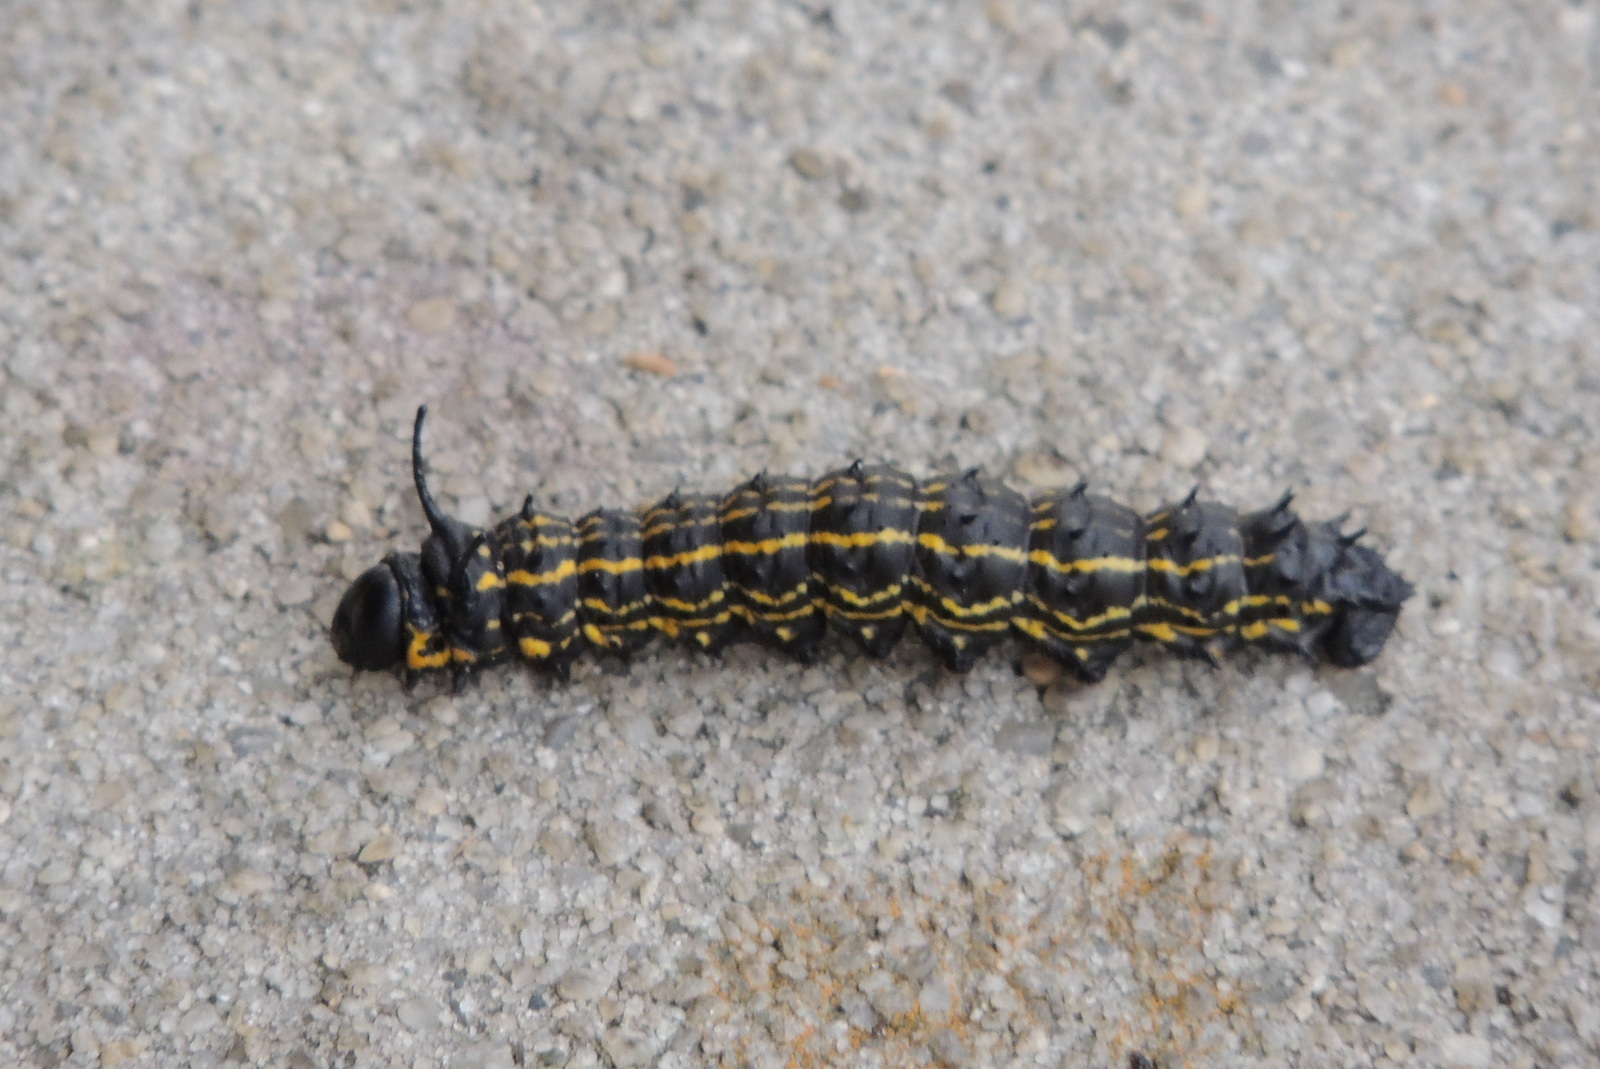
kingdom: Animalia
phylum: Arthropoda
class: Insecta
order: Lepidoptera
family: Saturniidae
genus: Anisota
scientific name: Anisota peigleri
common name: Peigler's oakworm moth
